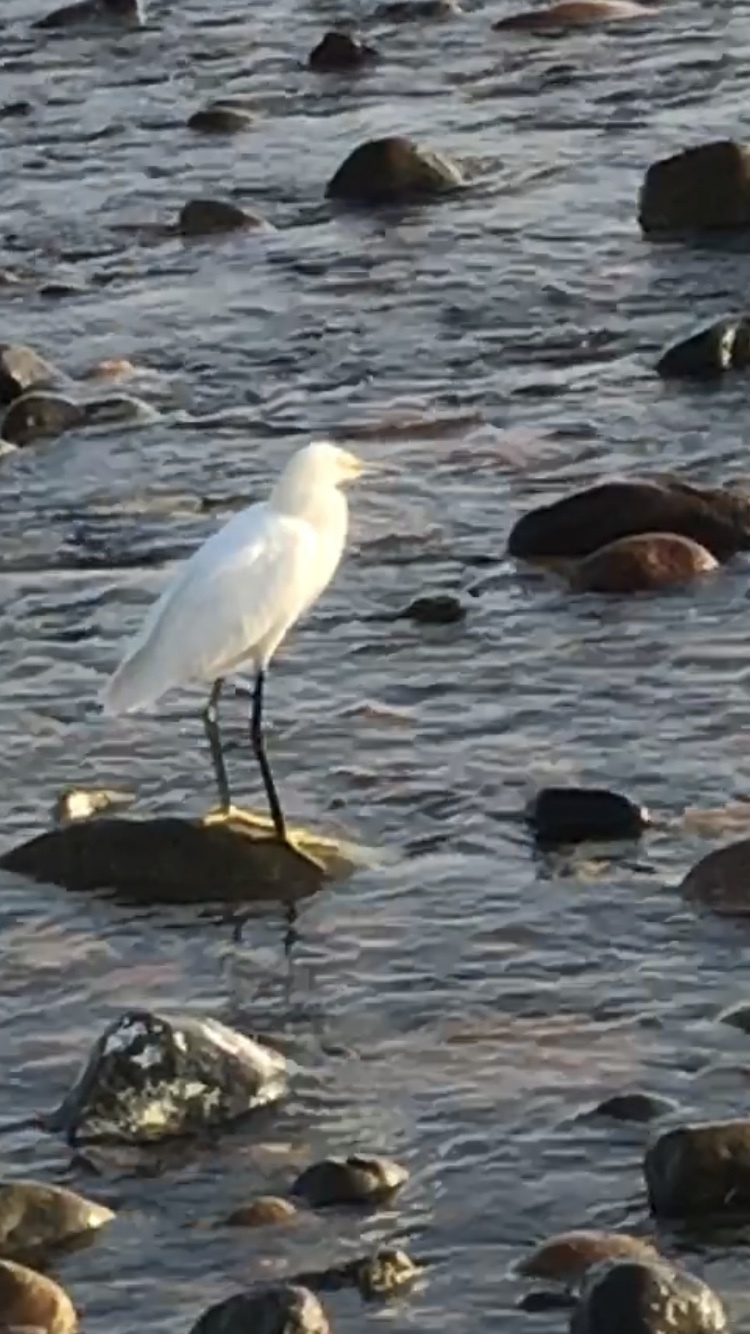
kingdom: Animalia
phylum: Chordata
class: Aves
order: Pelecaniformes
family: Ardeidae
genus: Egretta
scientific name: Egretta thula
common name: Snowy egret
